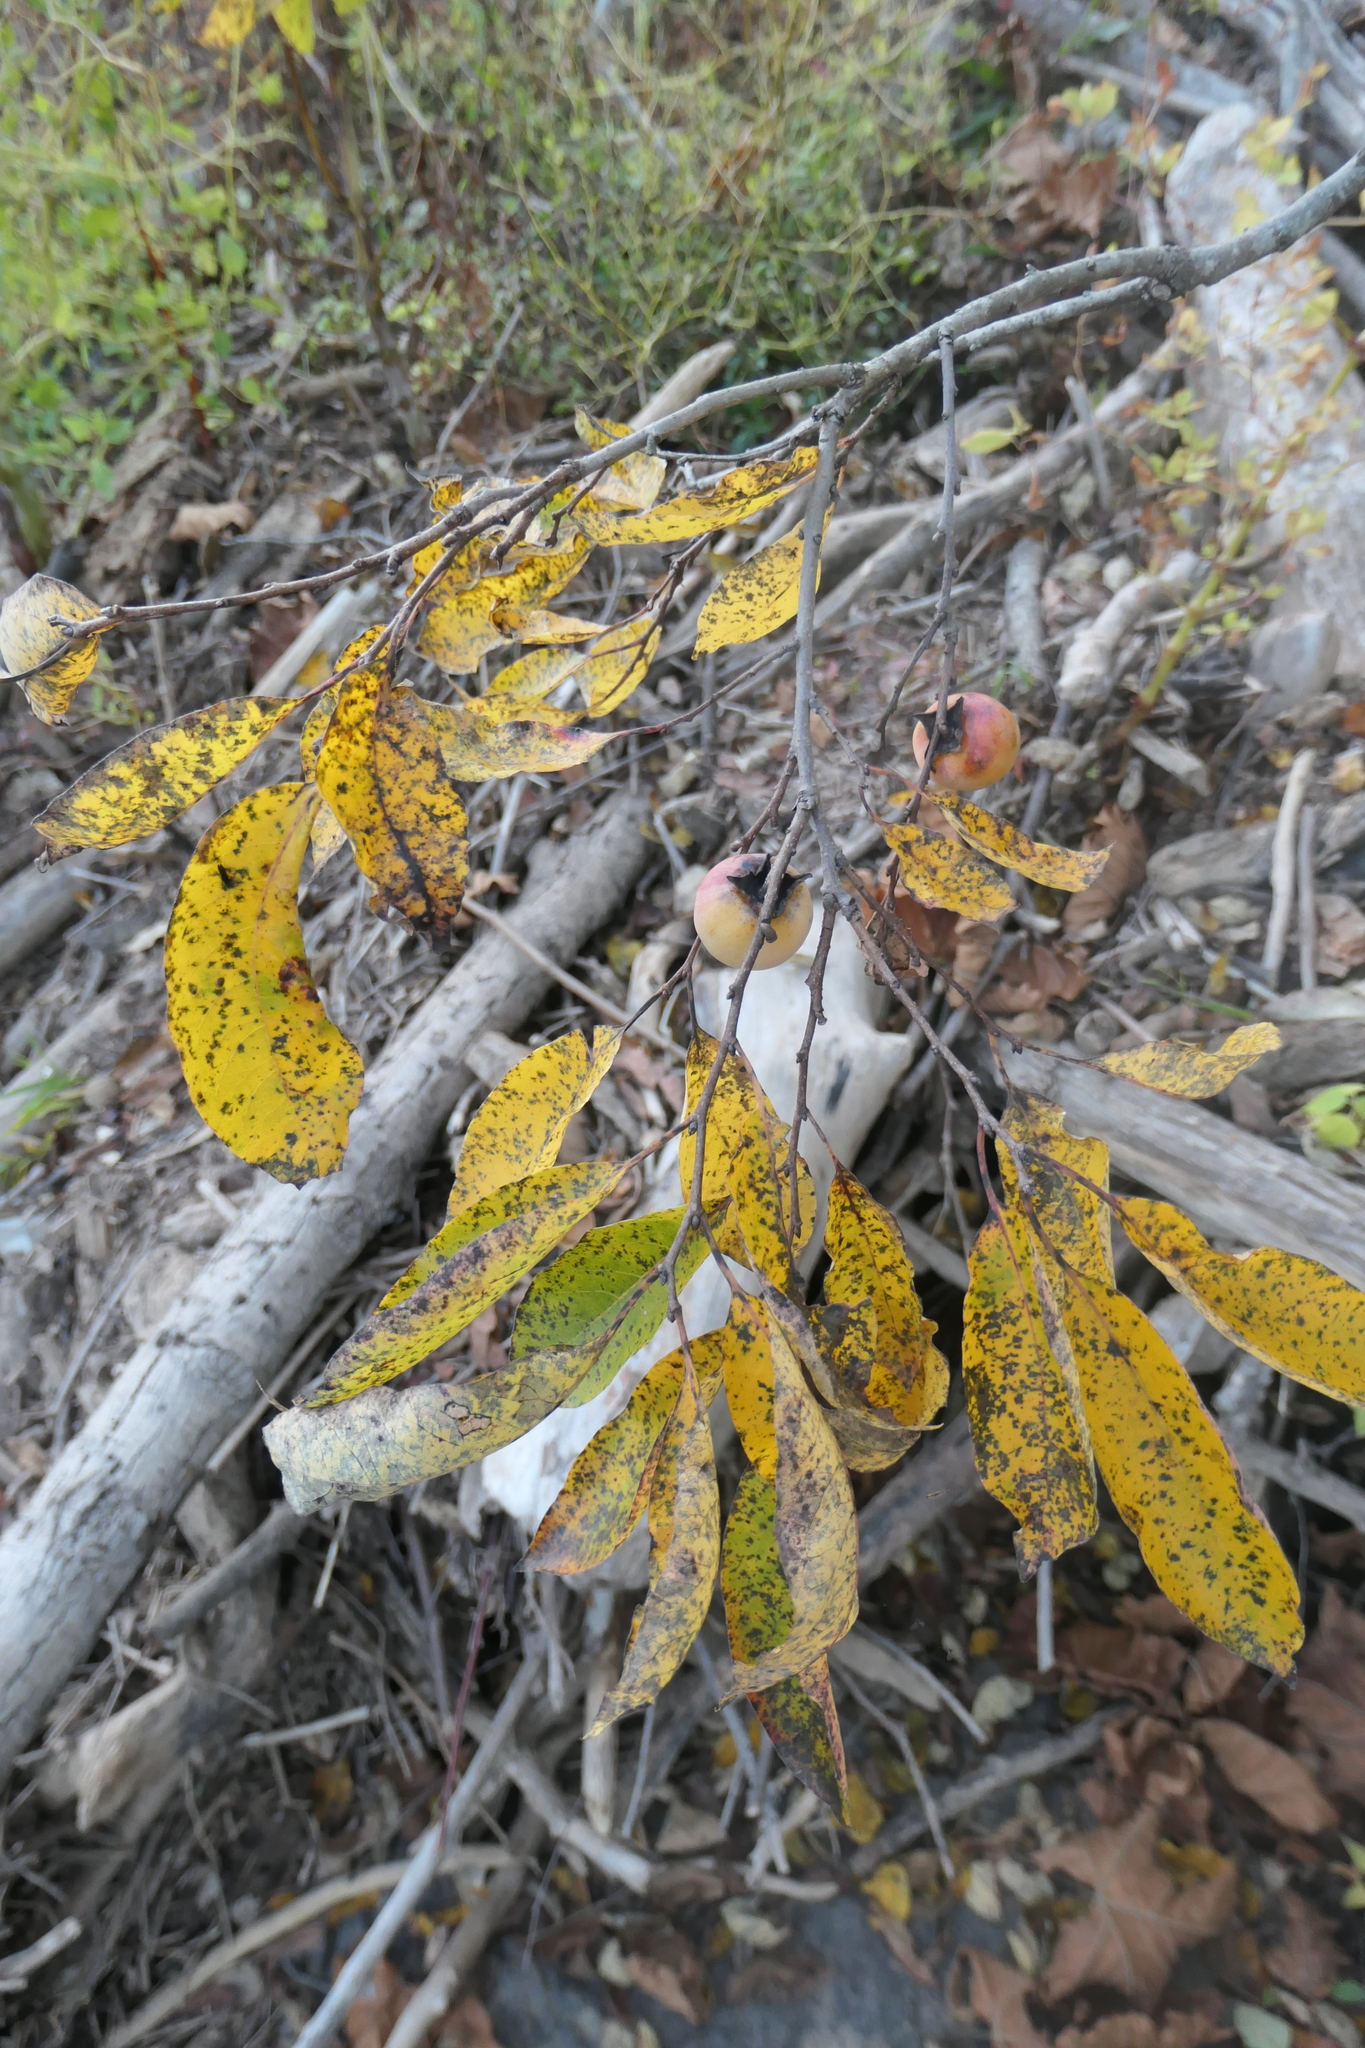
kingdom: Plantae
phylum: Tracheophyta
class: Magnoliopsida
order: Ericales
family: Ebenaceae
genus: Diospyros
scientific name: Diospyros virginiana
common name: Persimmon
